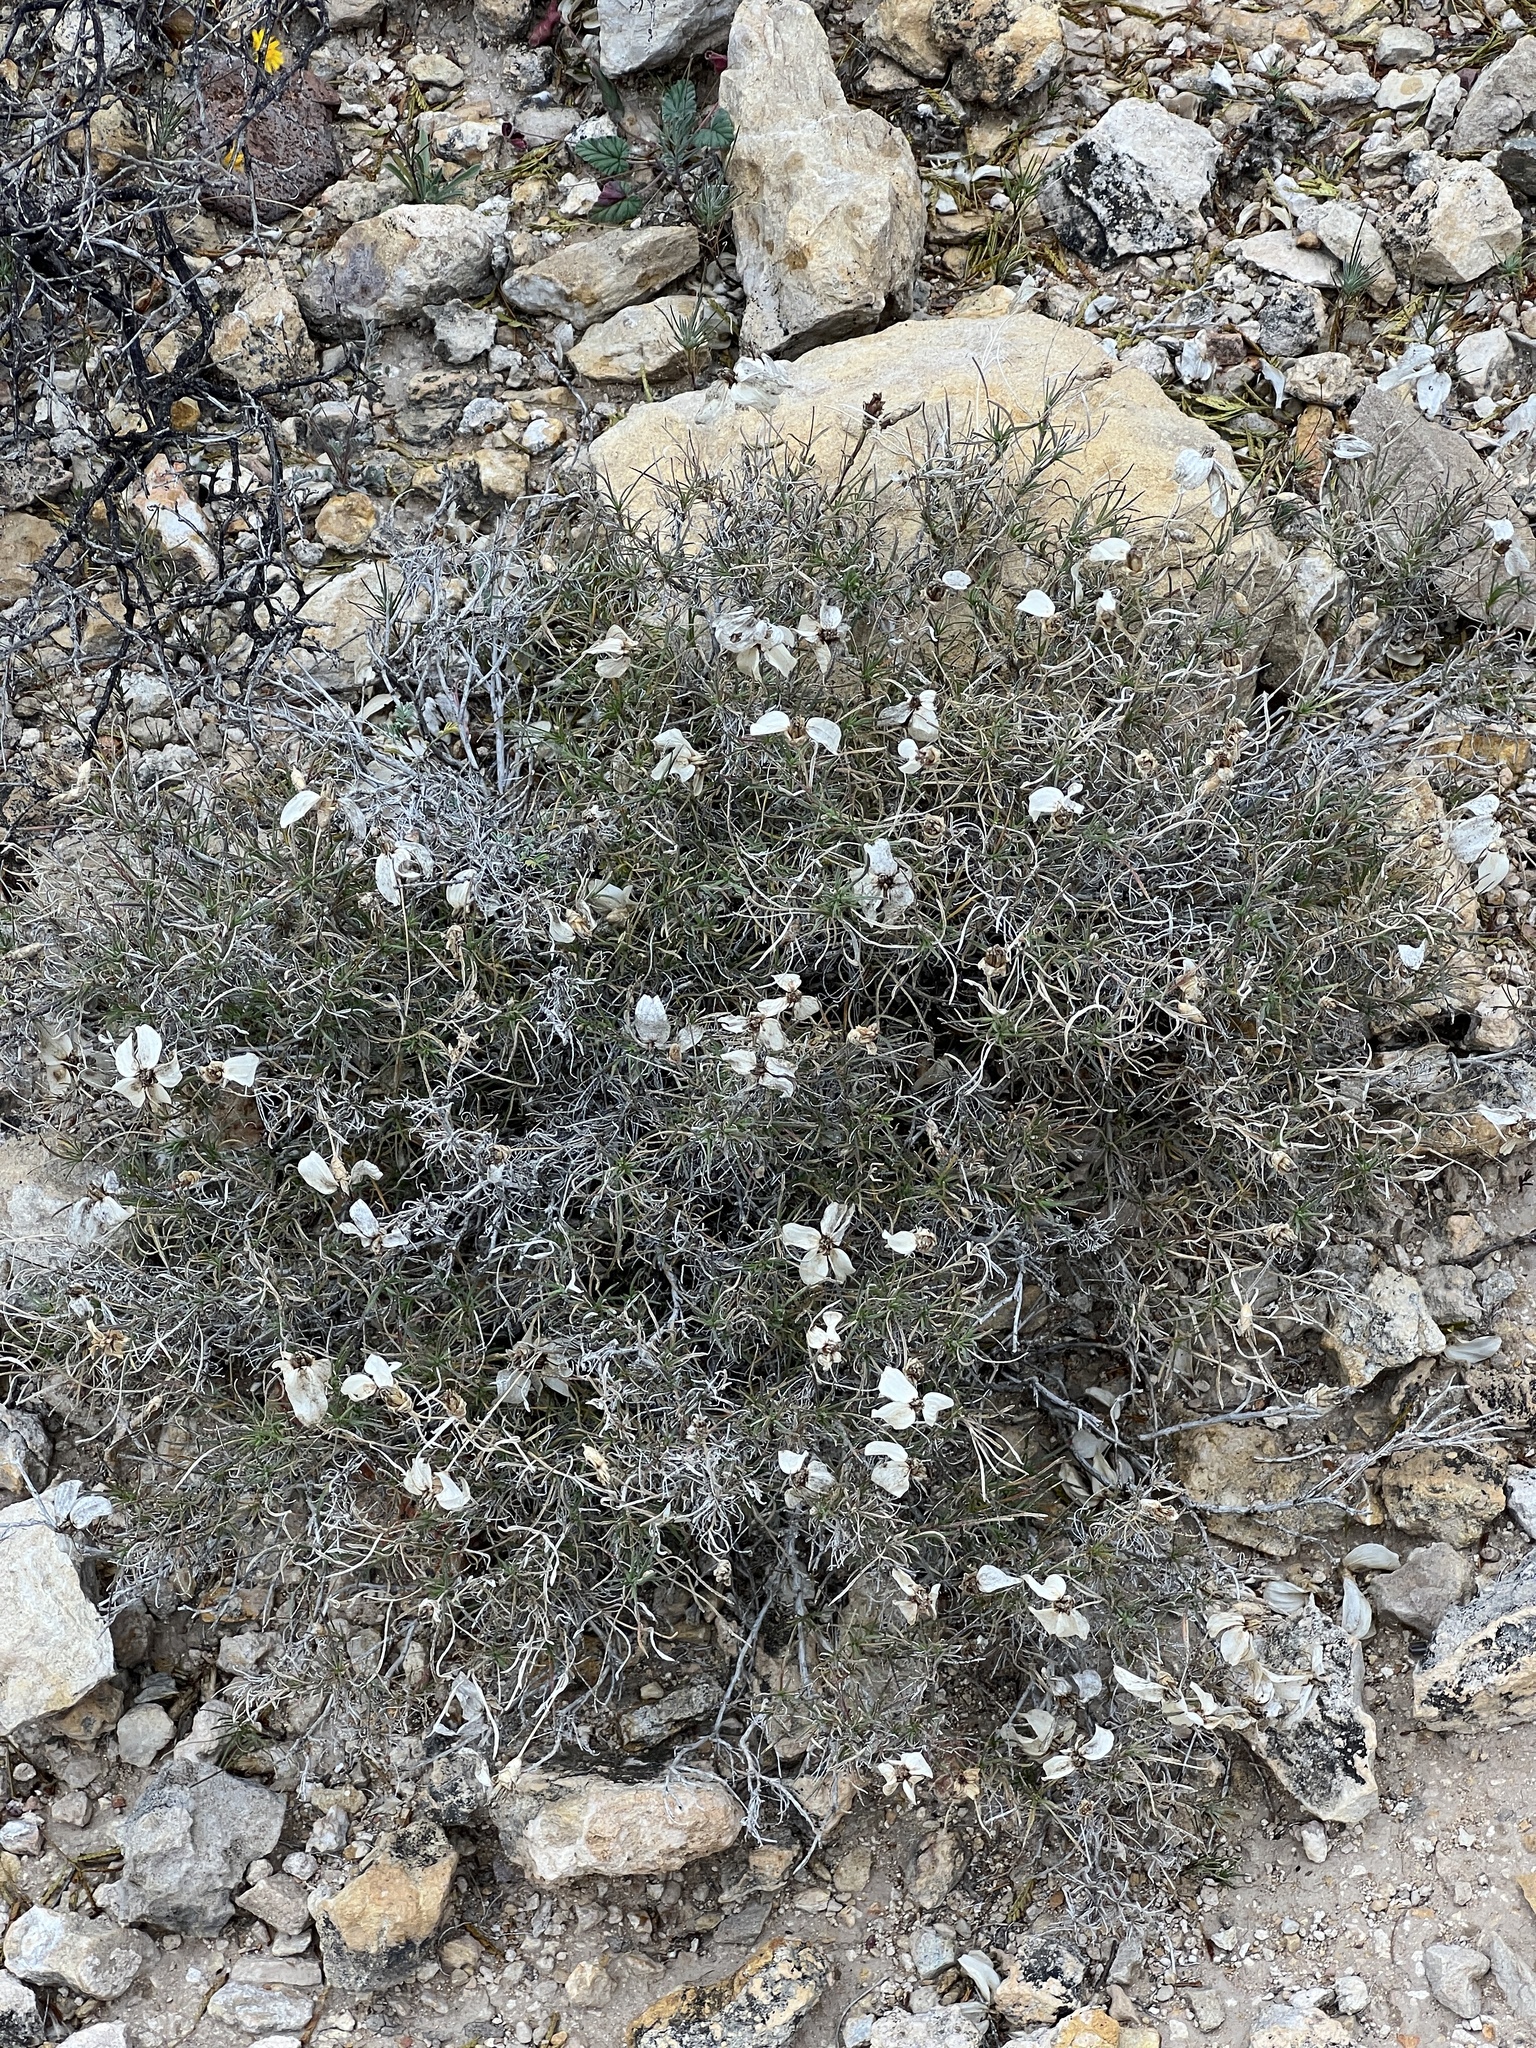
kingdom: Plantae
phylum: Tracheophyta
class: Magnoliopsida
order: Asterales
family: Asteraceae
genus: Zinnia
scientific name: Zinnia acerosa
